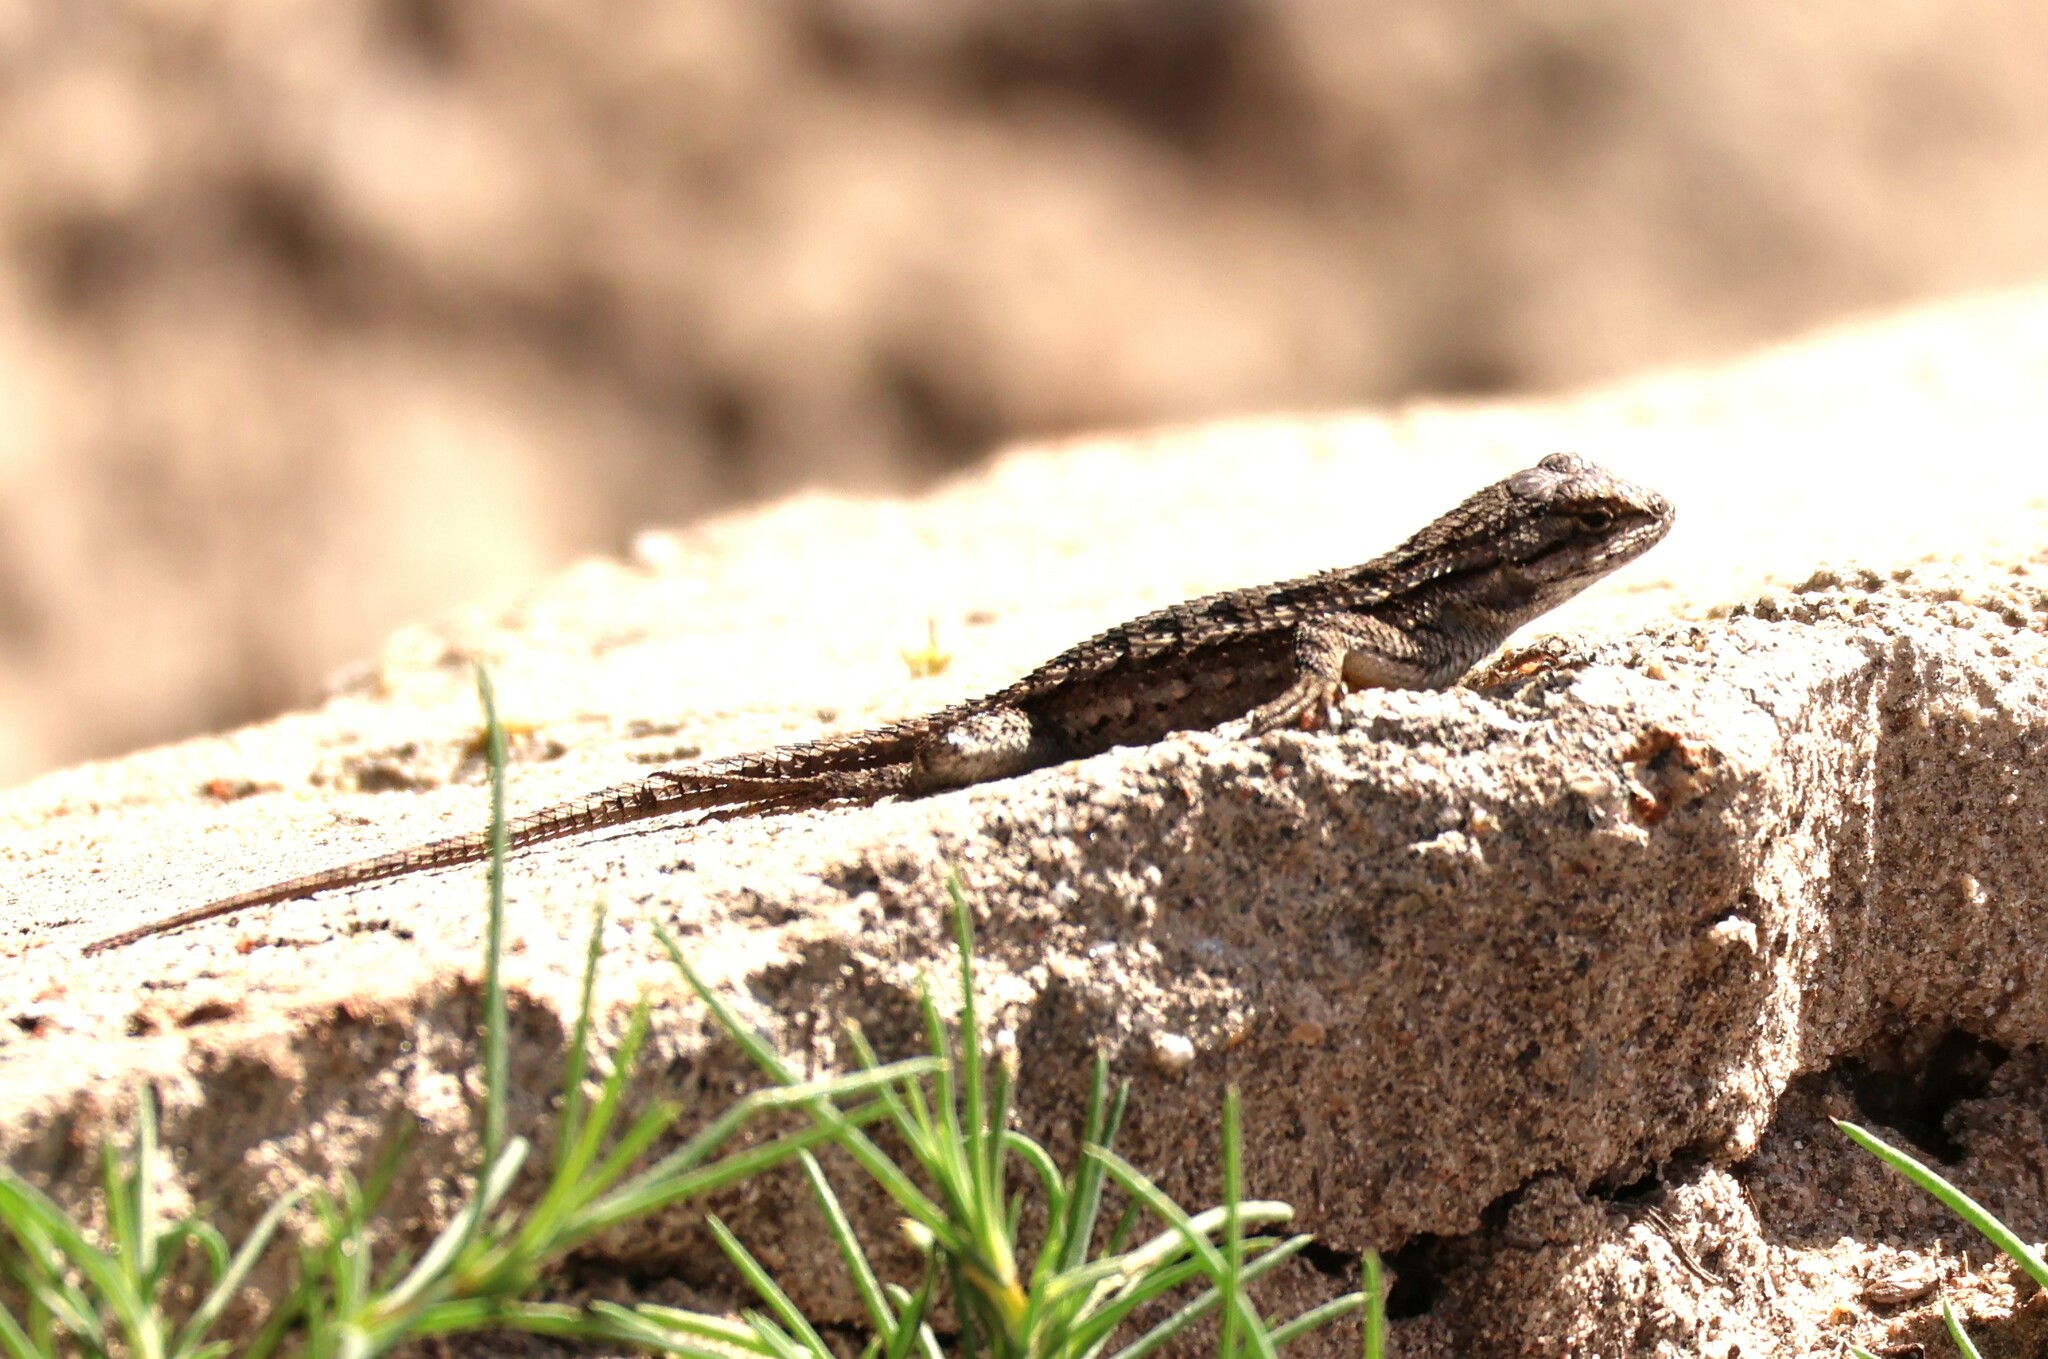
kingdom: Animalia
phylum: Chordata
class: Squamata
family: Phrynosomatidae
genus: Sceloporus
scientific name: Sceloporus occidentalis
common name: Western fence lizard
